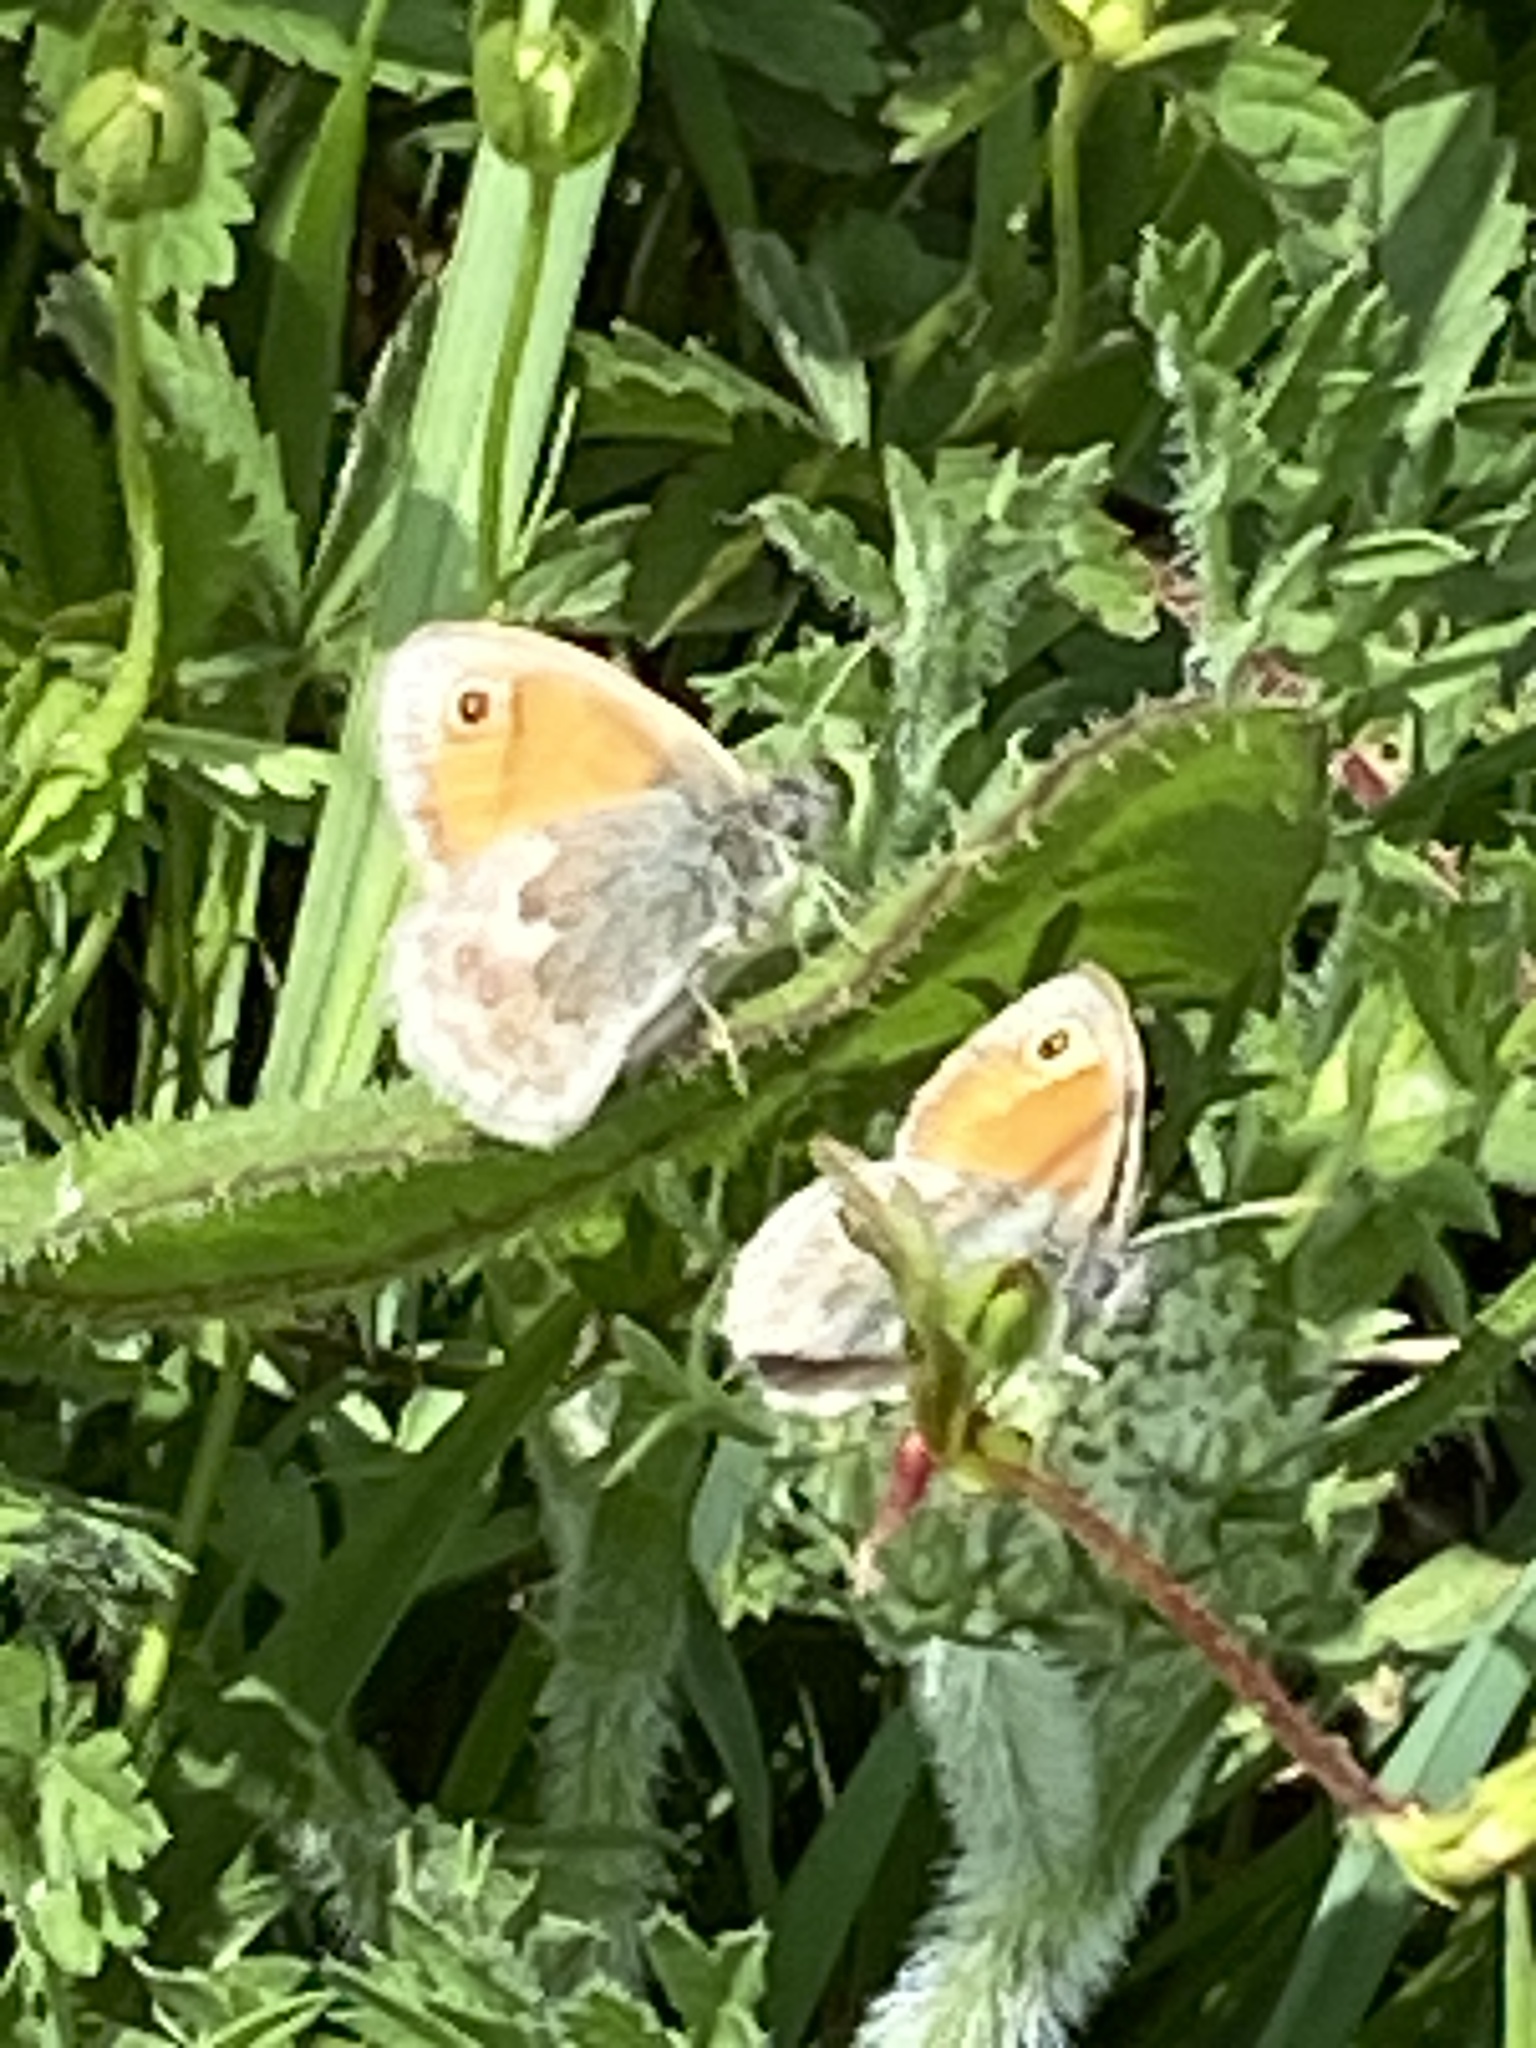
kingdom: Animalia
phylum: Arthropoda
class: Insecta
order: Lepidoptera
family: Nymphalidae
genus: Coenonympha
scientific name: Coenonympha pamphilus
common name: Small heath
